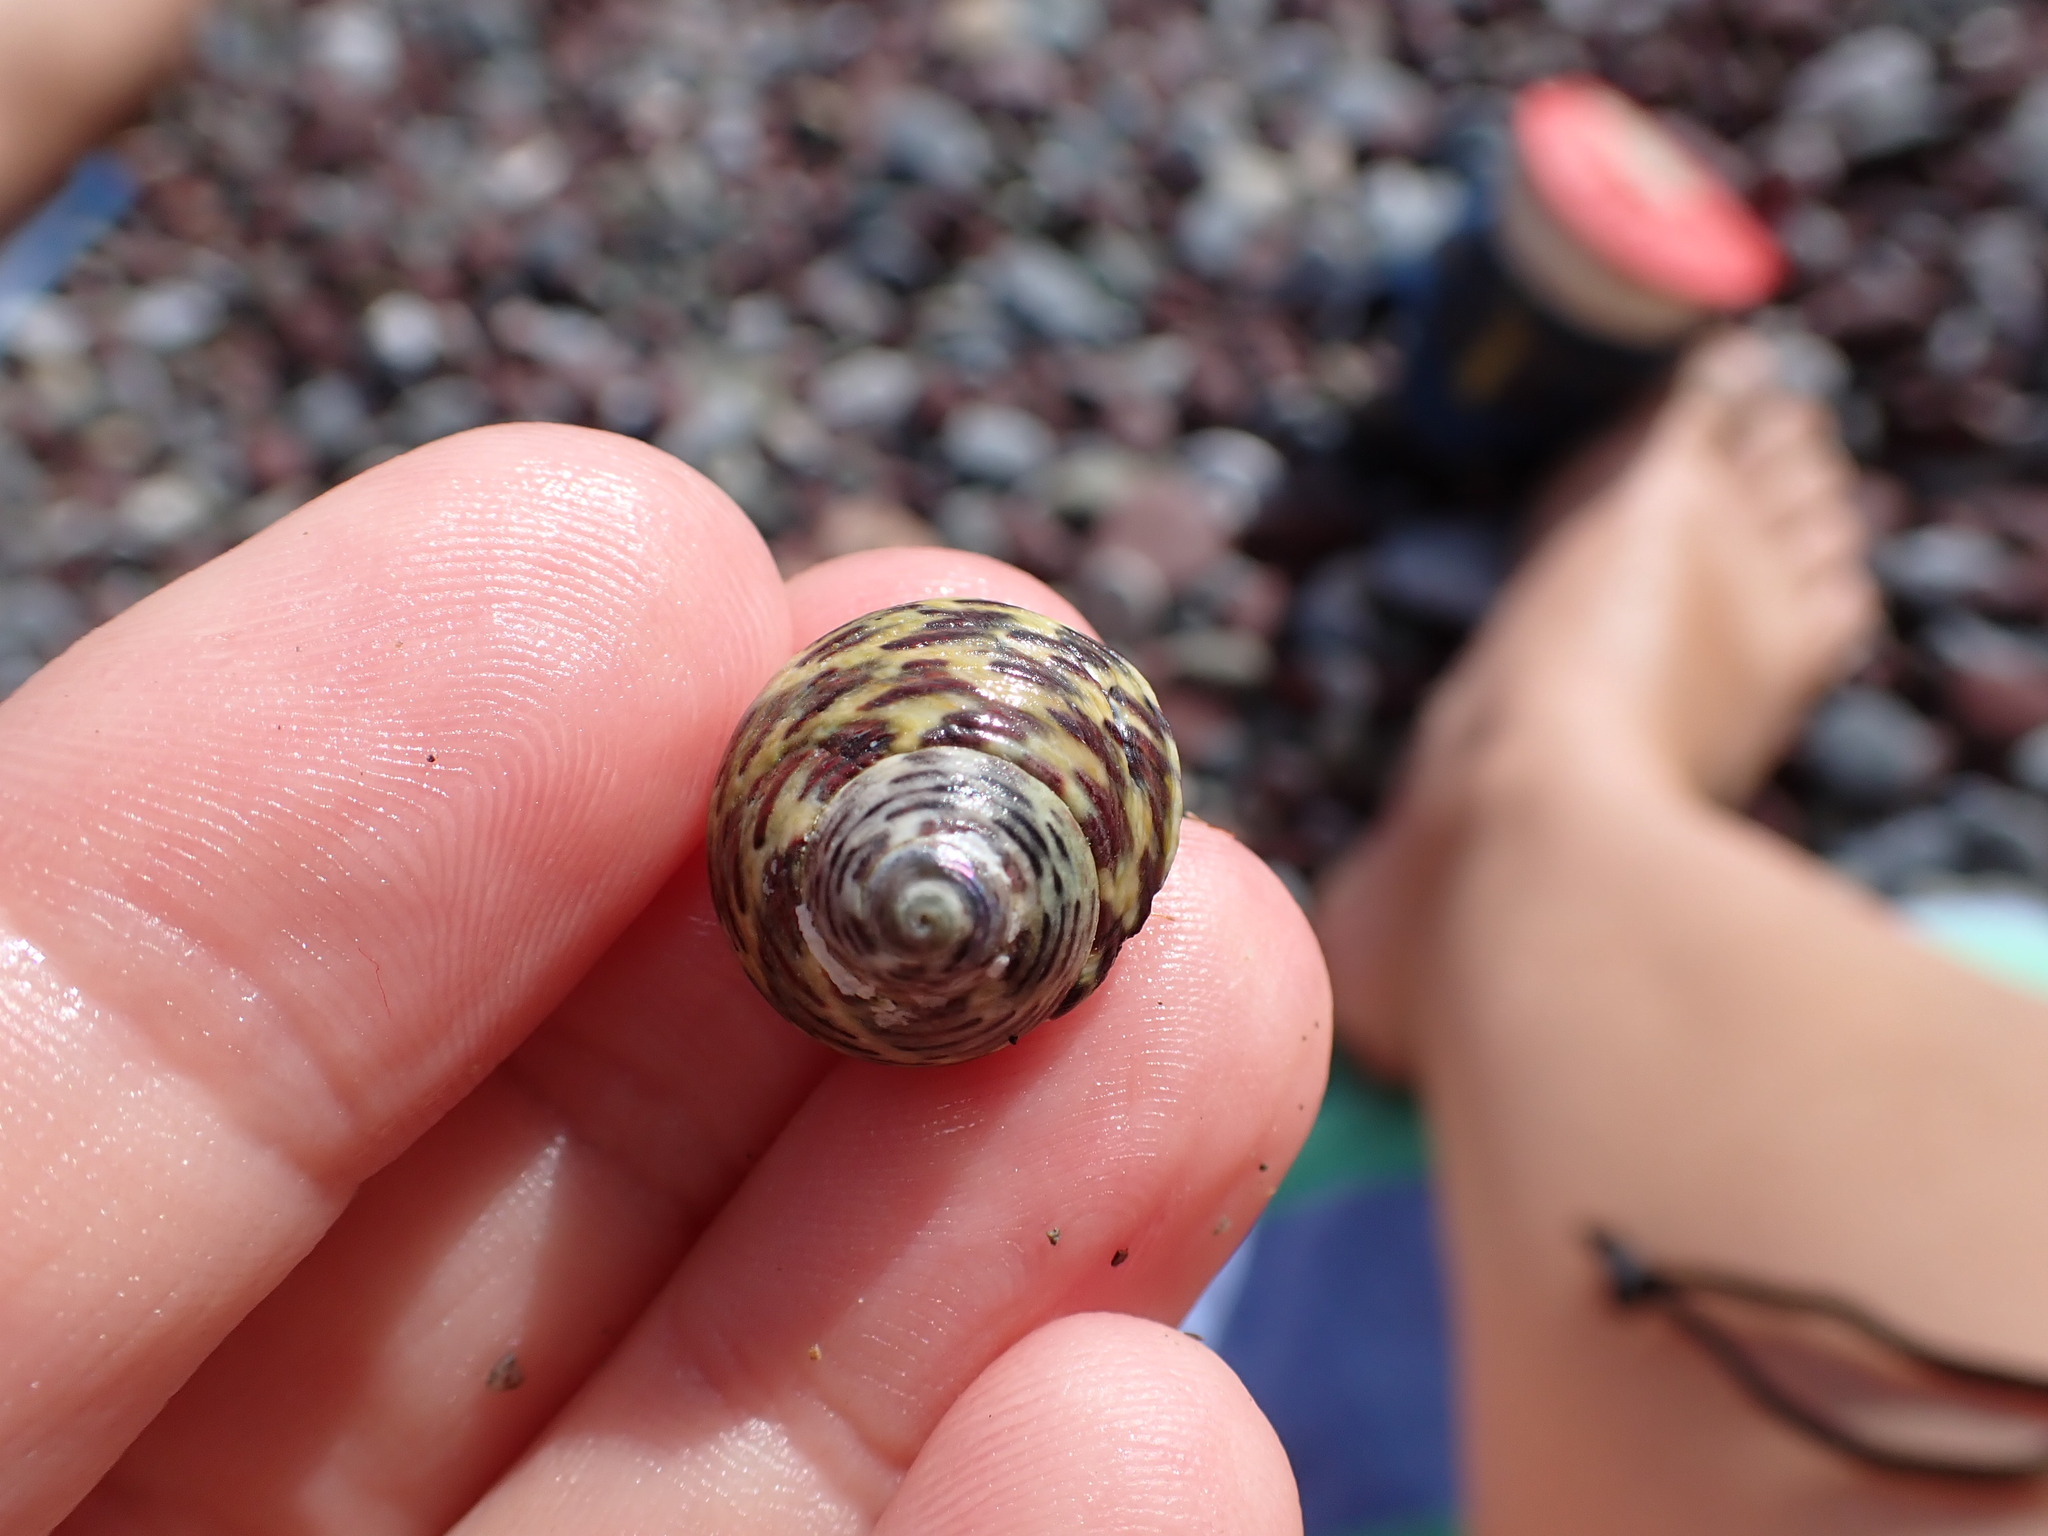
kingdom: Animalia
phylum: Mollusca
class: Gastropoda
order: Trochida
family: Trochidae
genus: Phorcus
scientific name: Phorcus turbinatus
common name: Turbinate monodont
